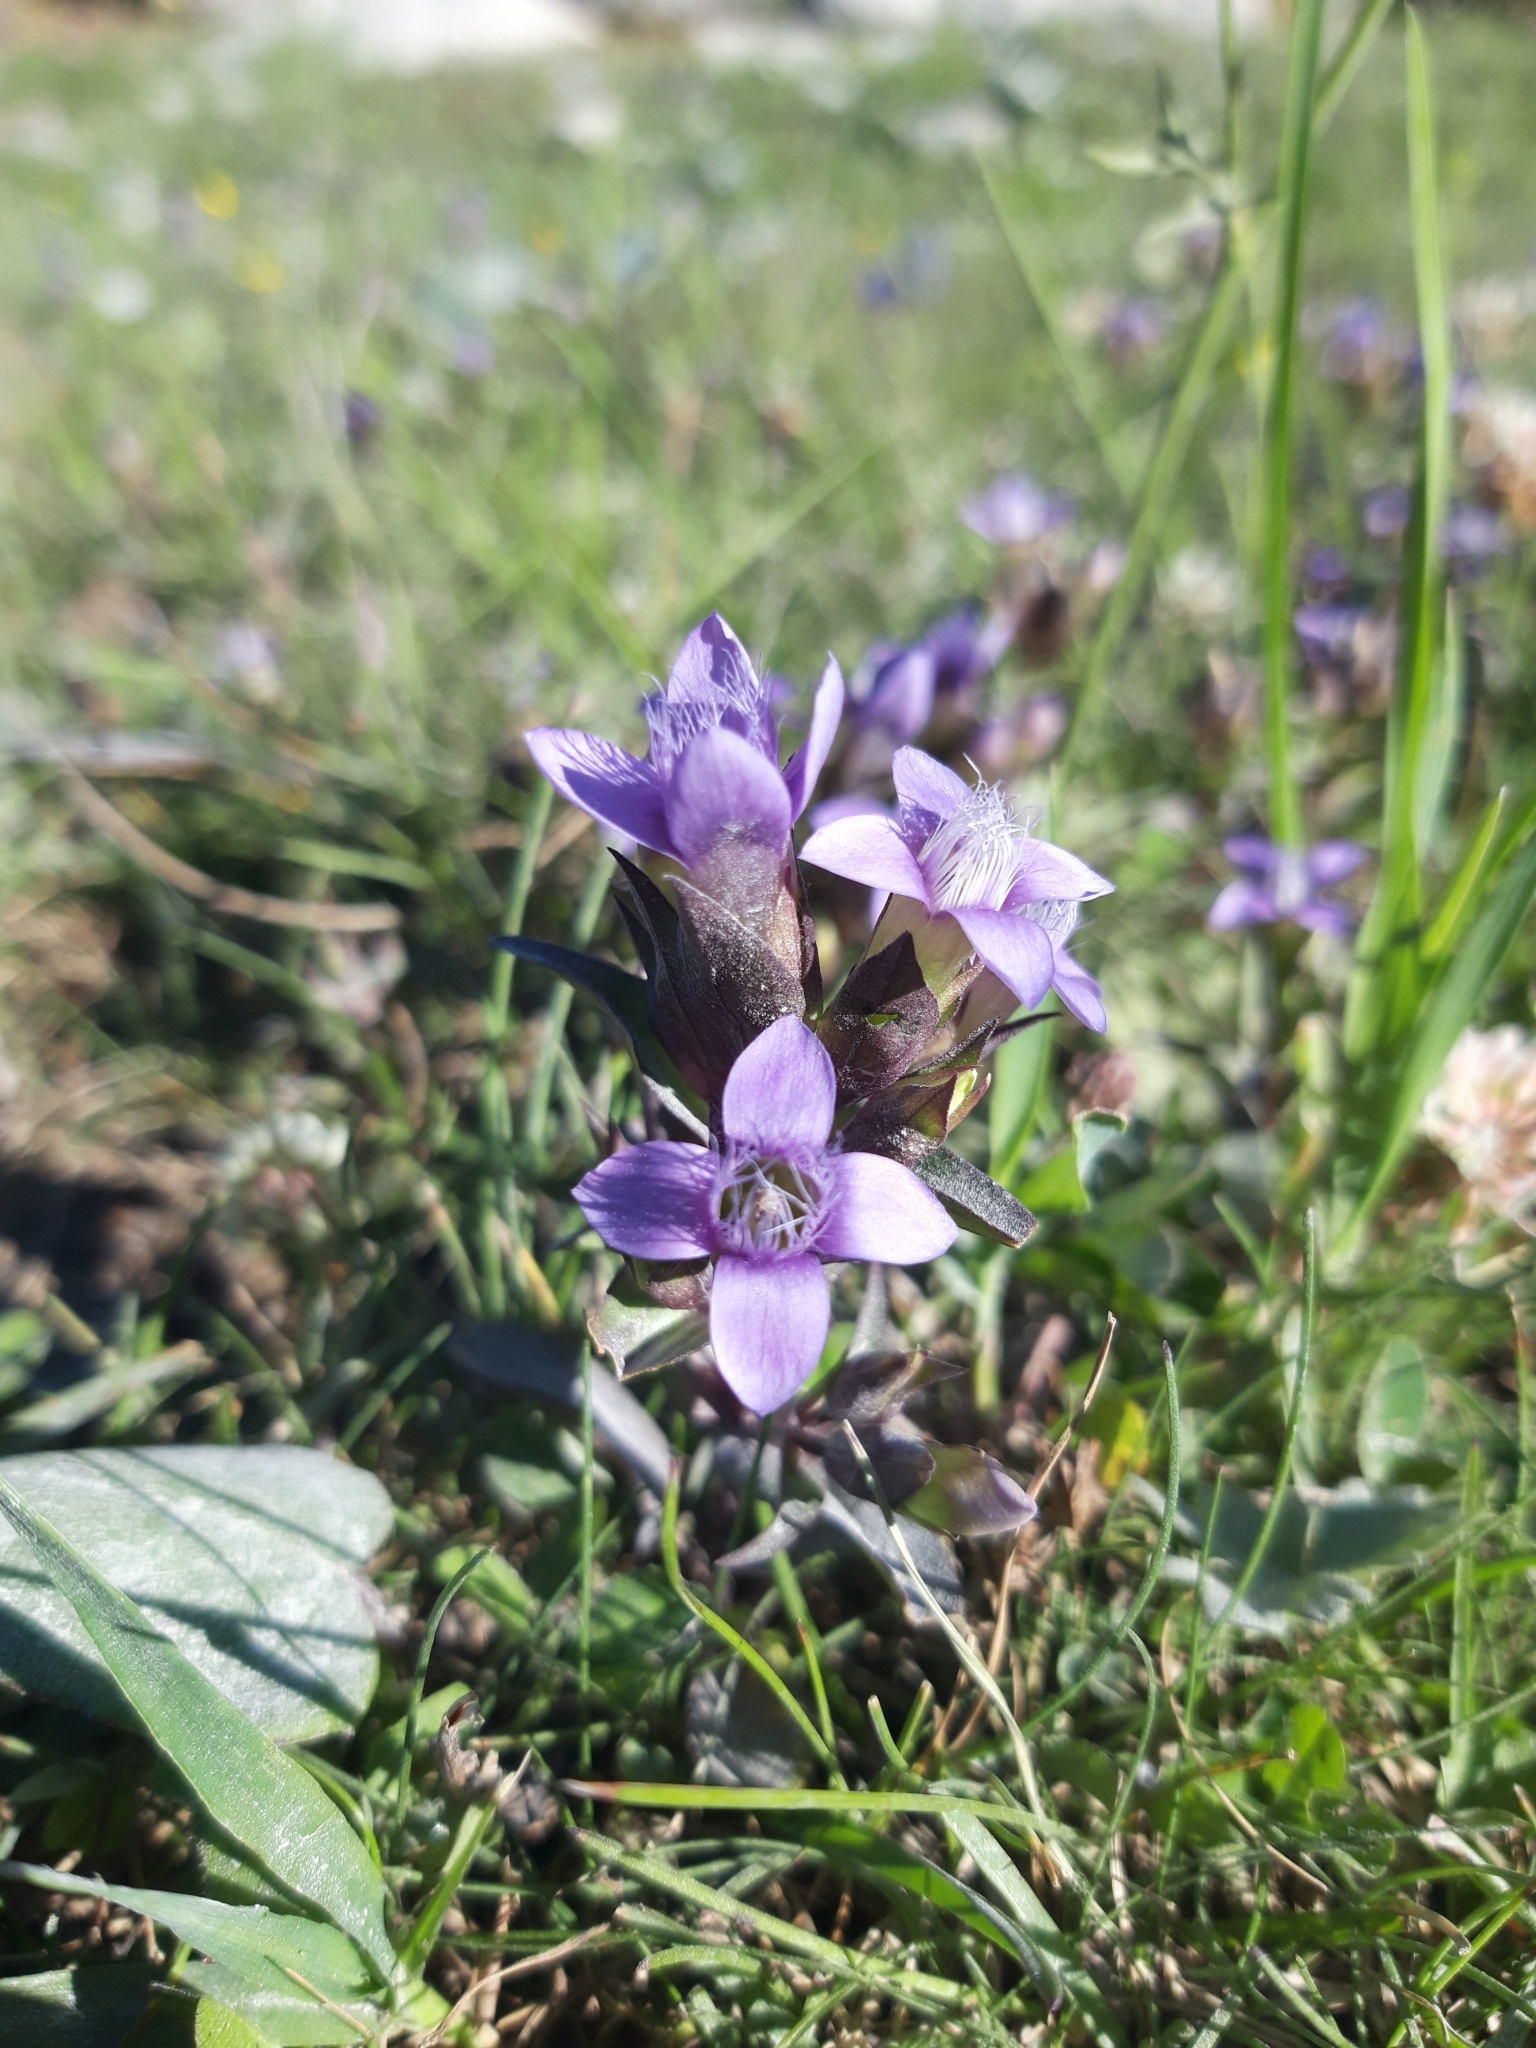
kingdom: Plantae
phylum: Tracheophyta
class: Magnoliopsida
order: Gentianales
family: Gentianaceae
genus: Gentianella
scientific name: Gentianella campestris
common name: Field gentian
